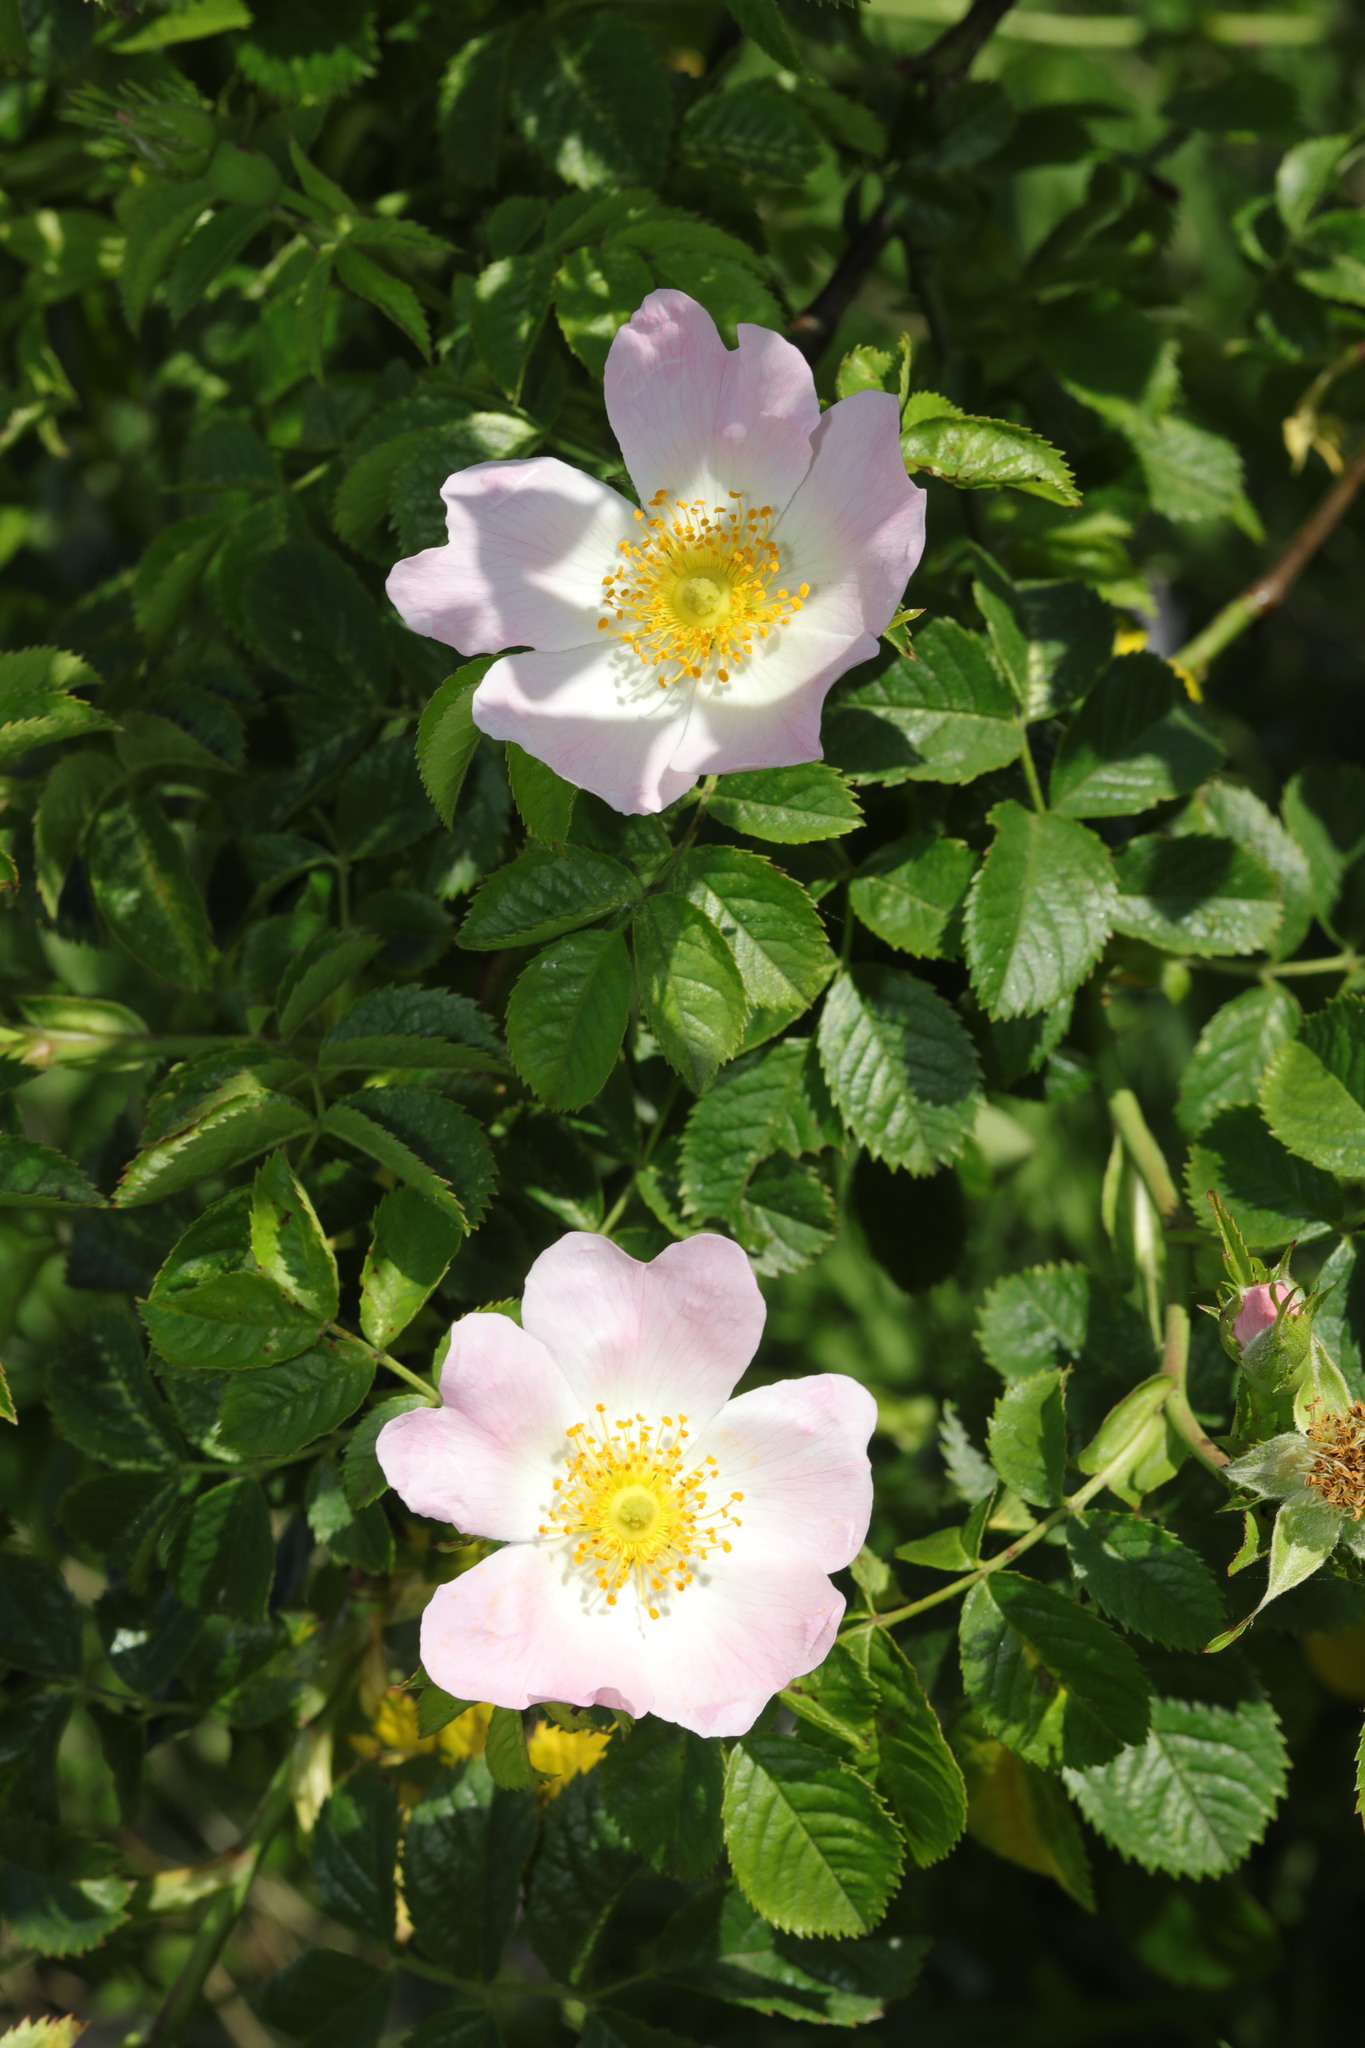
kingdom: Plantae
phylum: Tracheophyta
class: Magnoliopsida
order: Rosales
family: Rosaceae
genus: Rosa
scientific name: Rosa canina
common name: Dog rose
